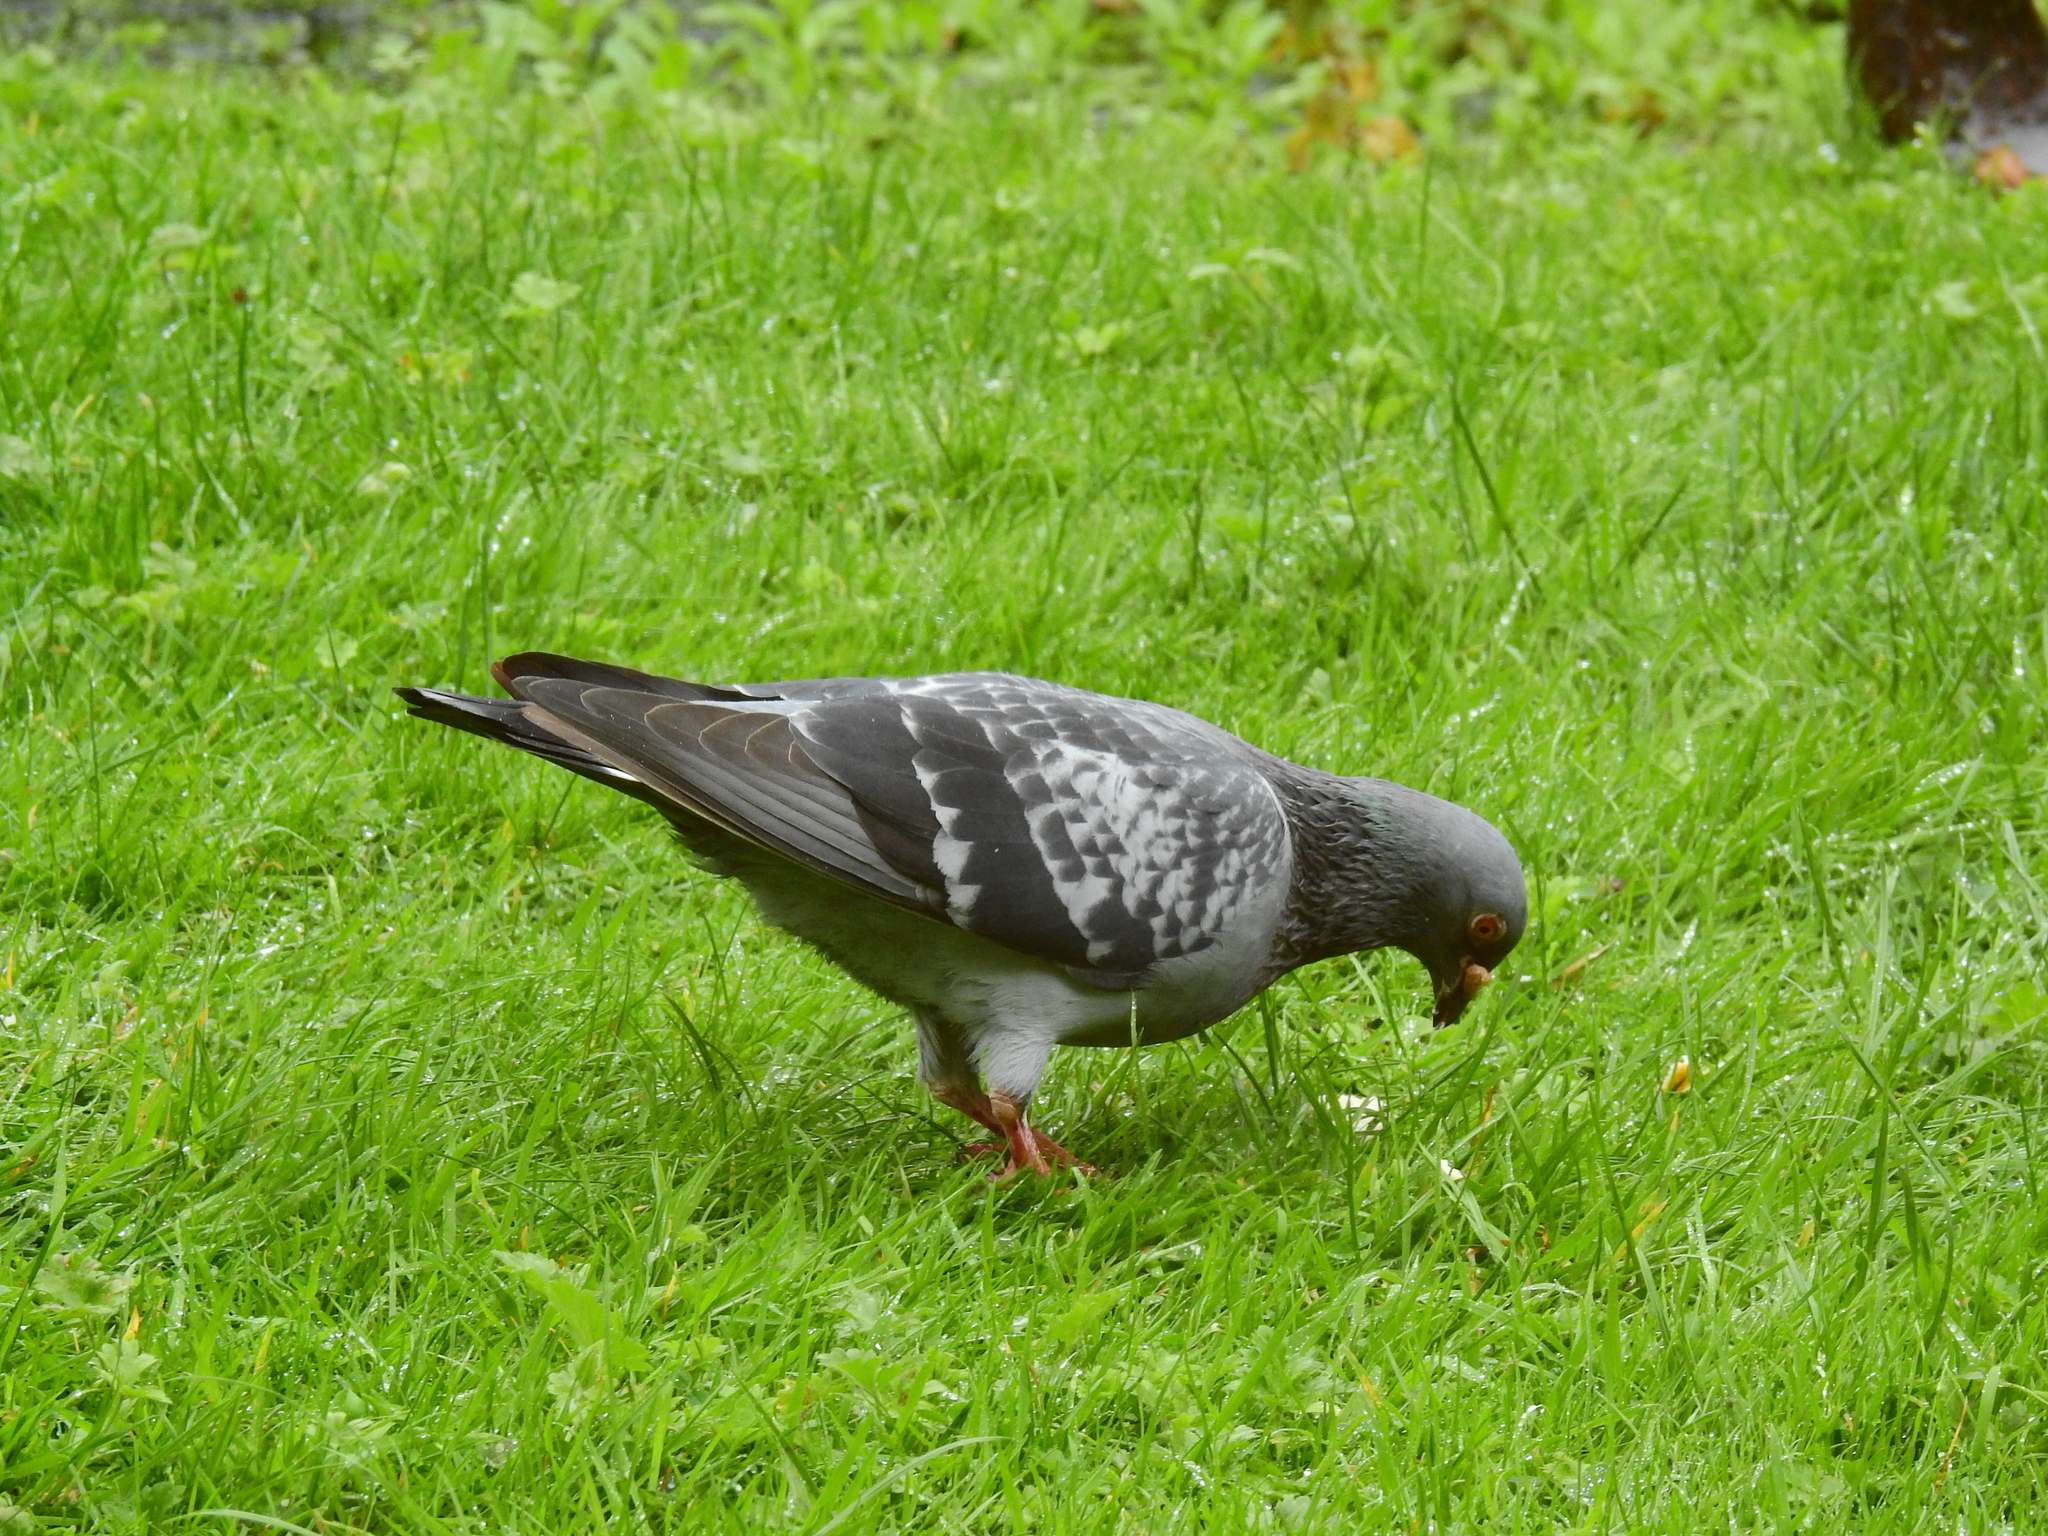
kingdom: Animalia
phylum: Chordata
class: Aves
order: Columbiformes
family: Columbidae
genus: Columba
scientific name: Columba livia
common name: Rock pigeon
